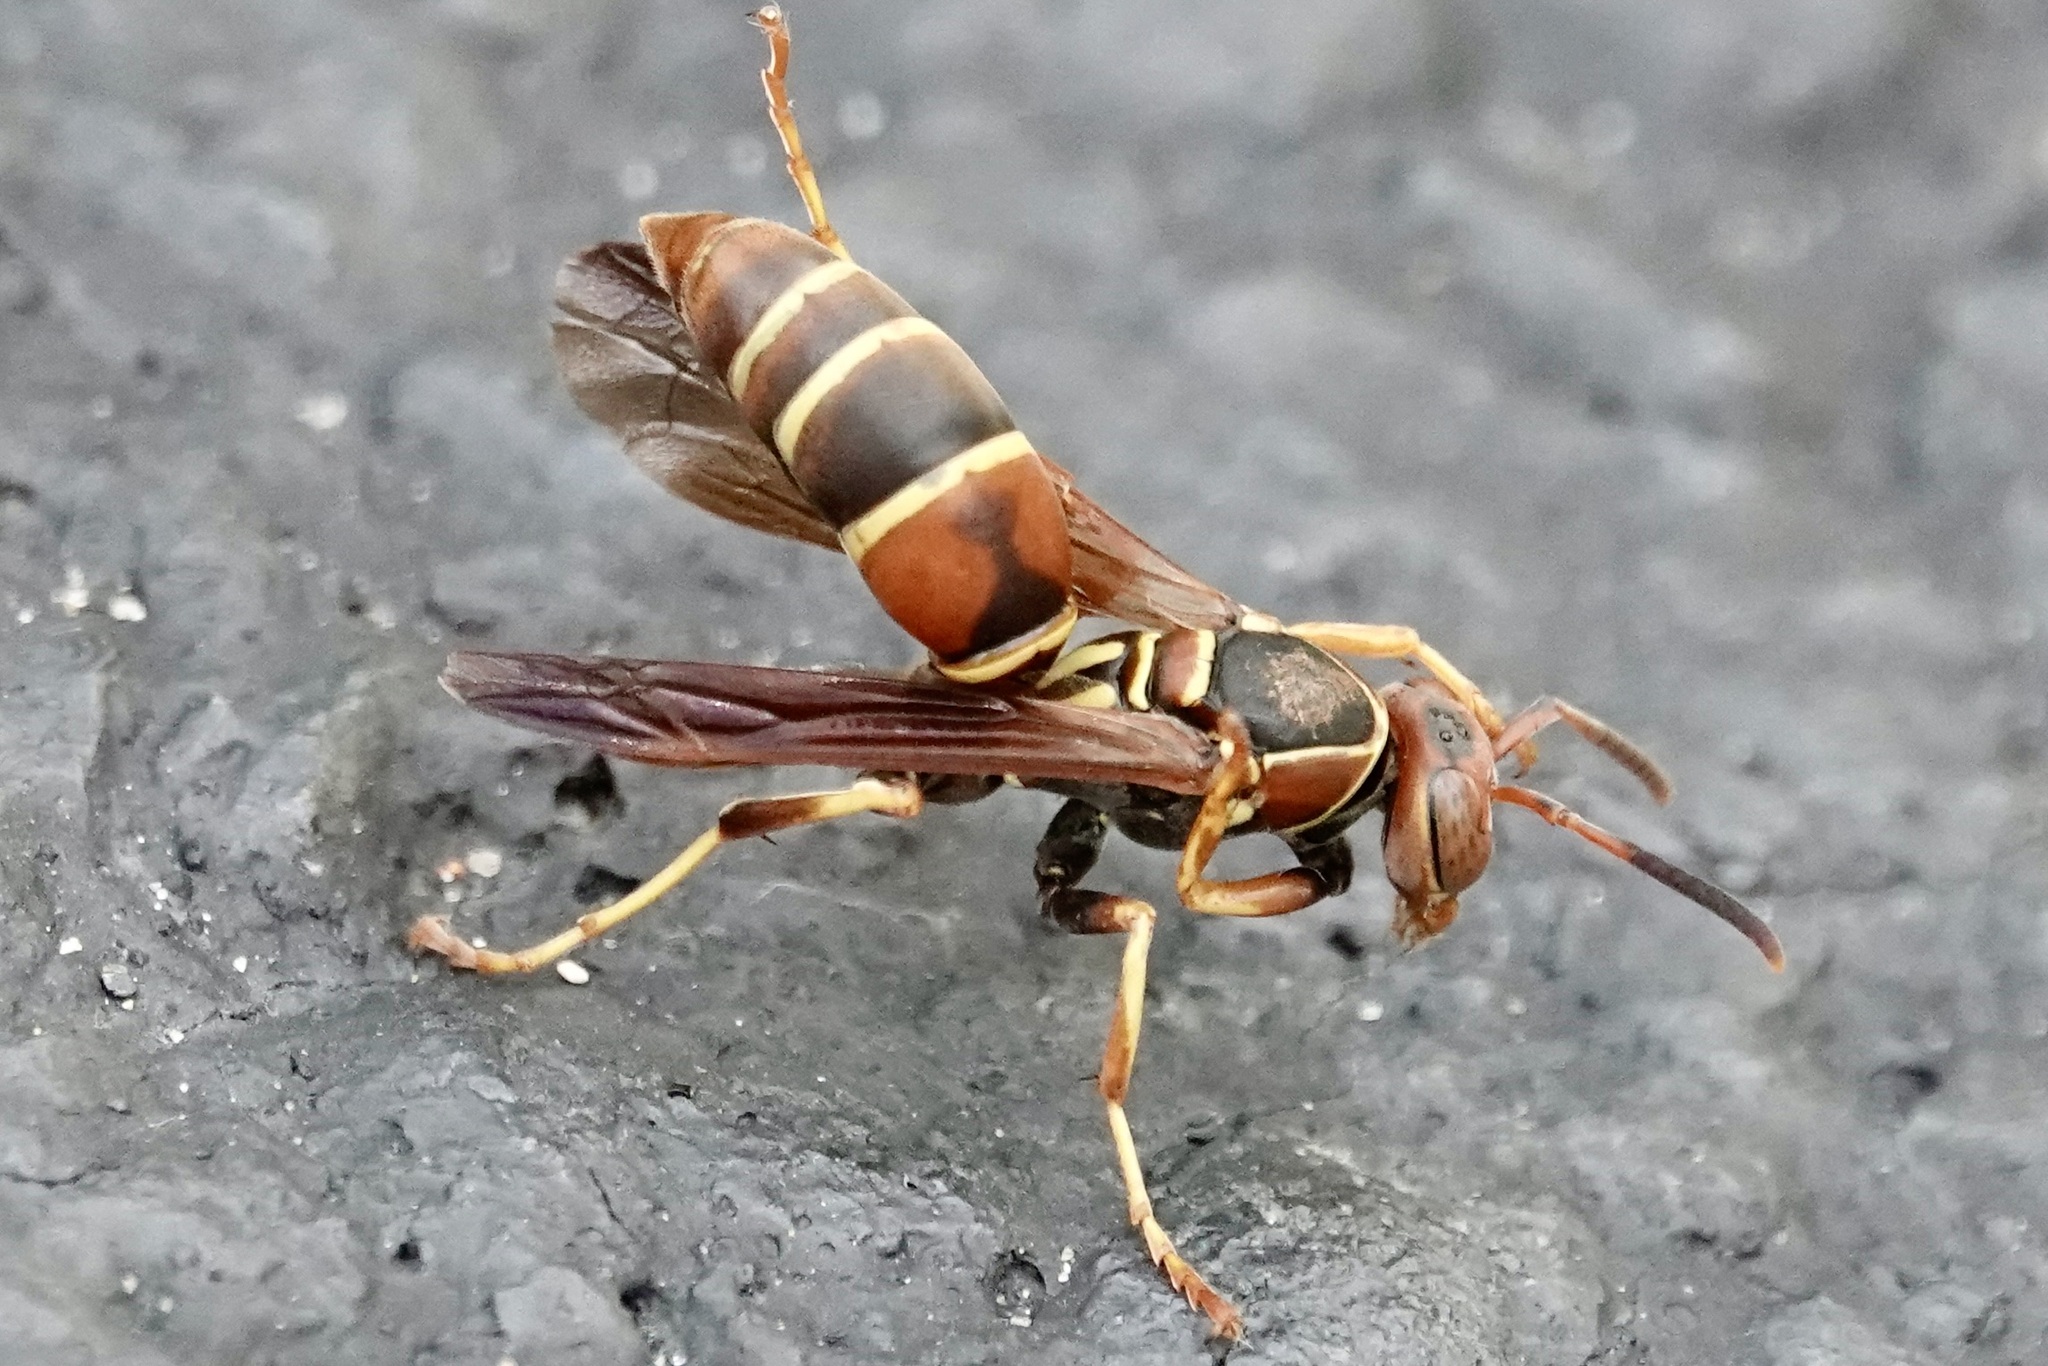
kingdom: Animalia
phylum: Arthropoda
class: Insecta
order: Hymenoptera
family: Eumenidae
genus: Polistes
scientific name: Polistes dorsalis
